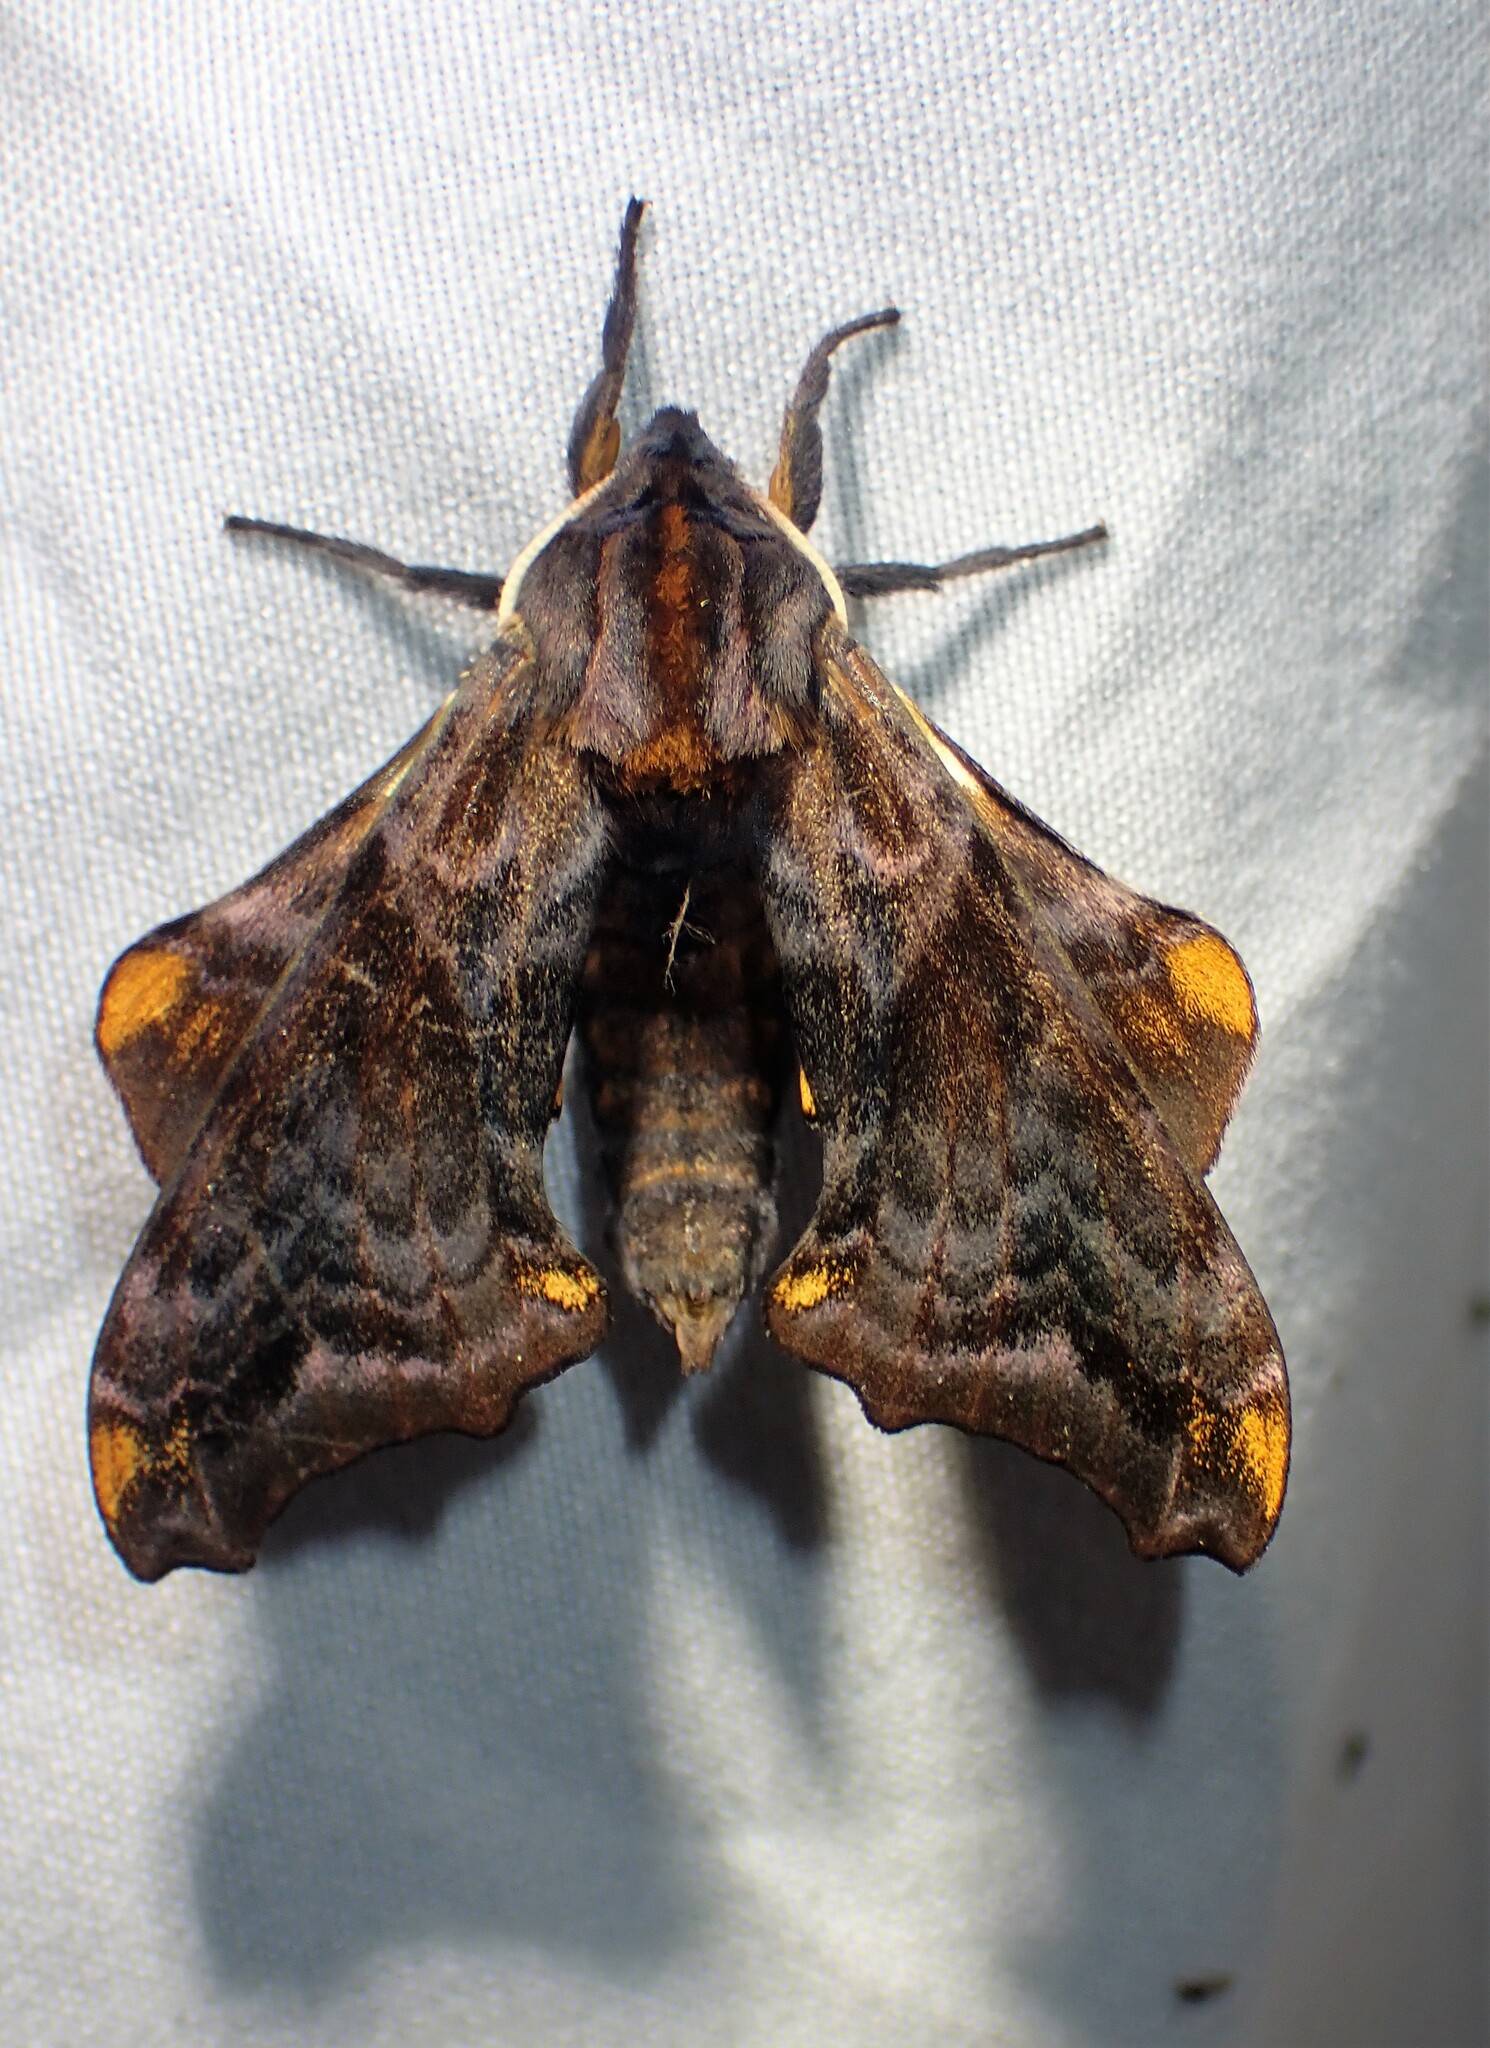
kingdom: Animalia
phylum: Arthropoda
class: Insecta
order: Lepidoptera
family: Sphingidae
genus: Paonias
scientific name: Paonias myops
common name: Small-eyed sphinx
